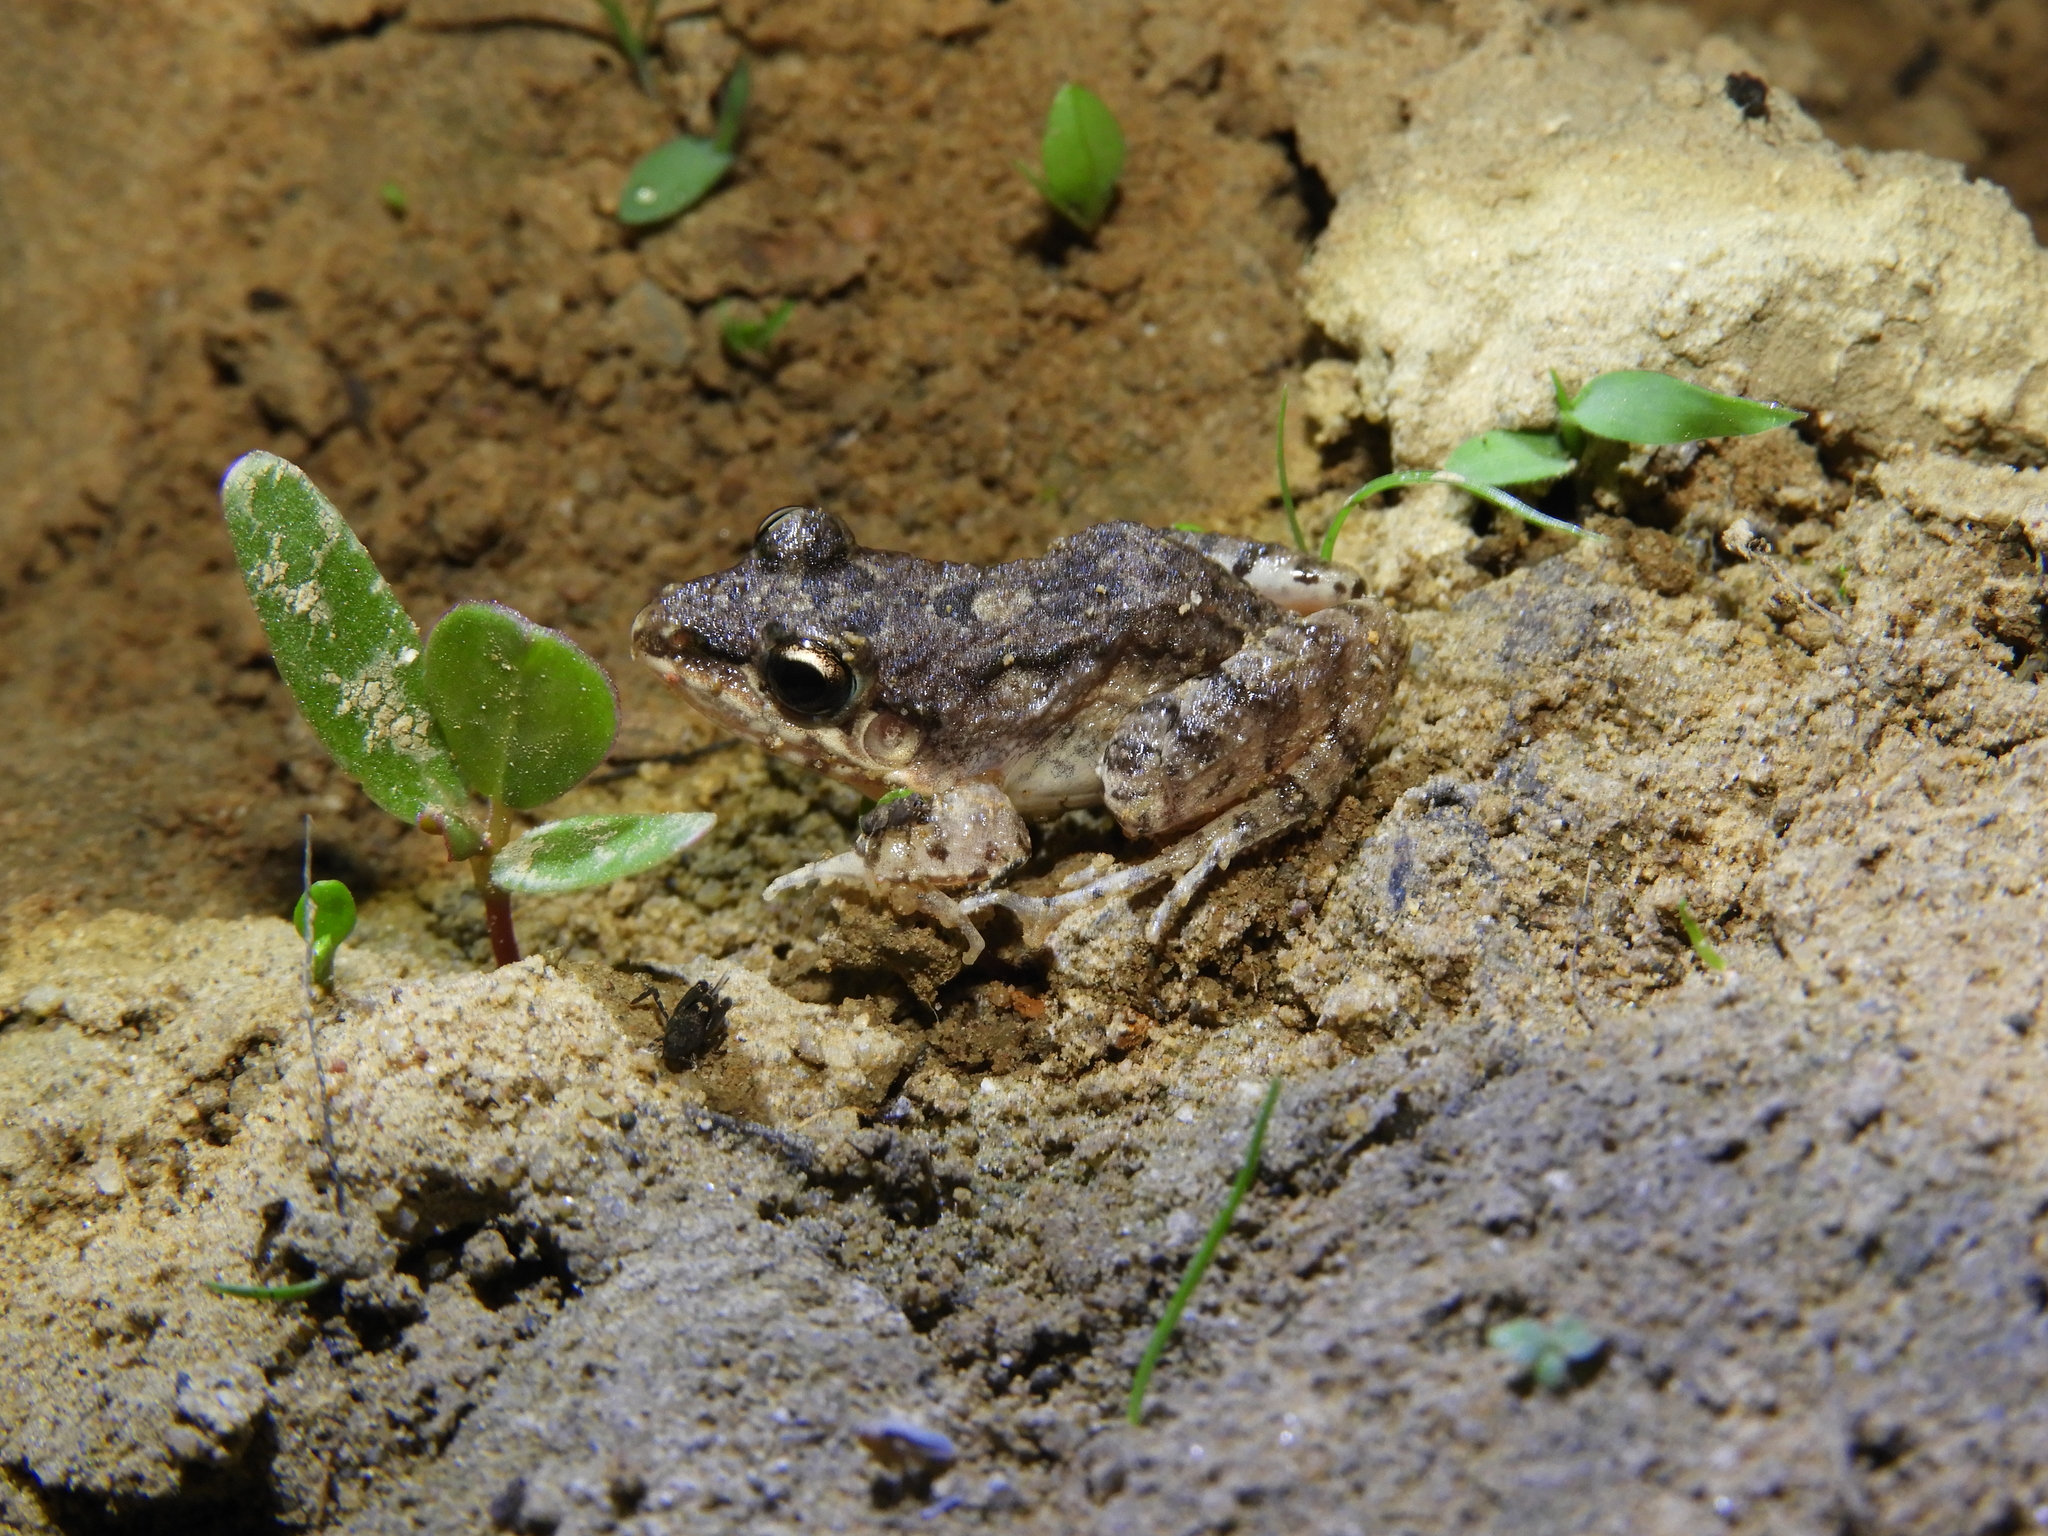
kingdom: Animalia
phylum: Chordata
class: Amphibia
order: Anura
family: Leptodactylidae
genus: Leptodactylus
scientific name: Leptodactylus fragilis
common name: Mexican white-lipped frog
